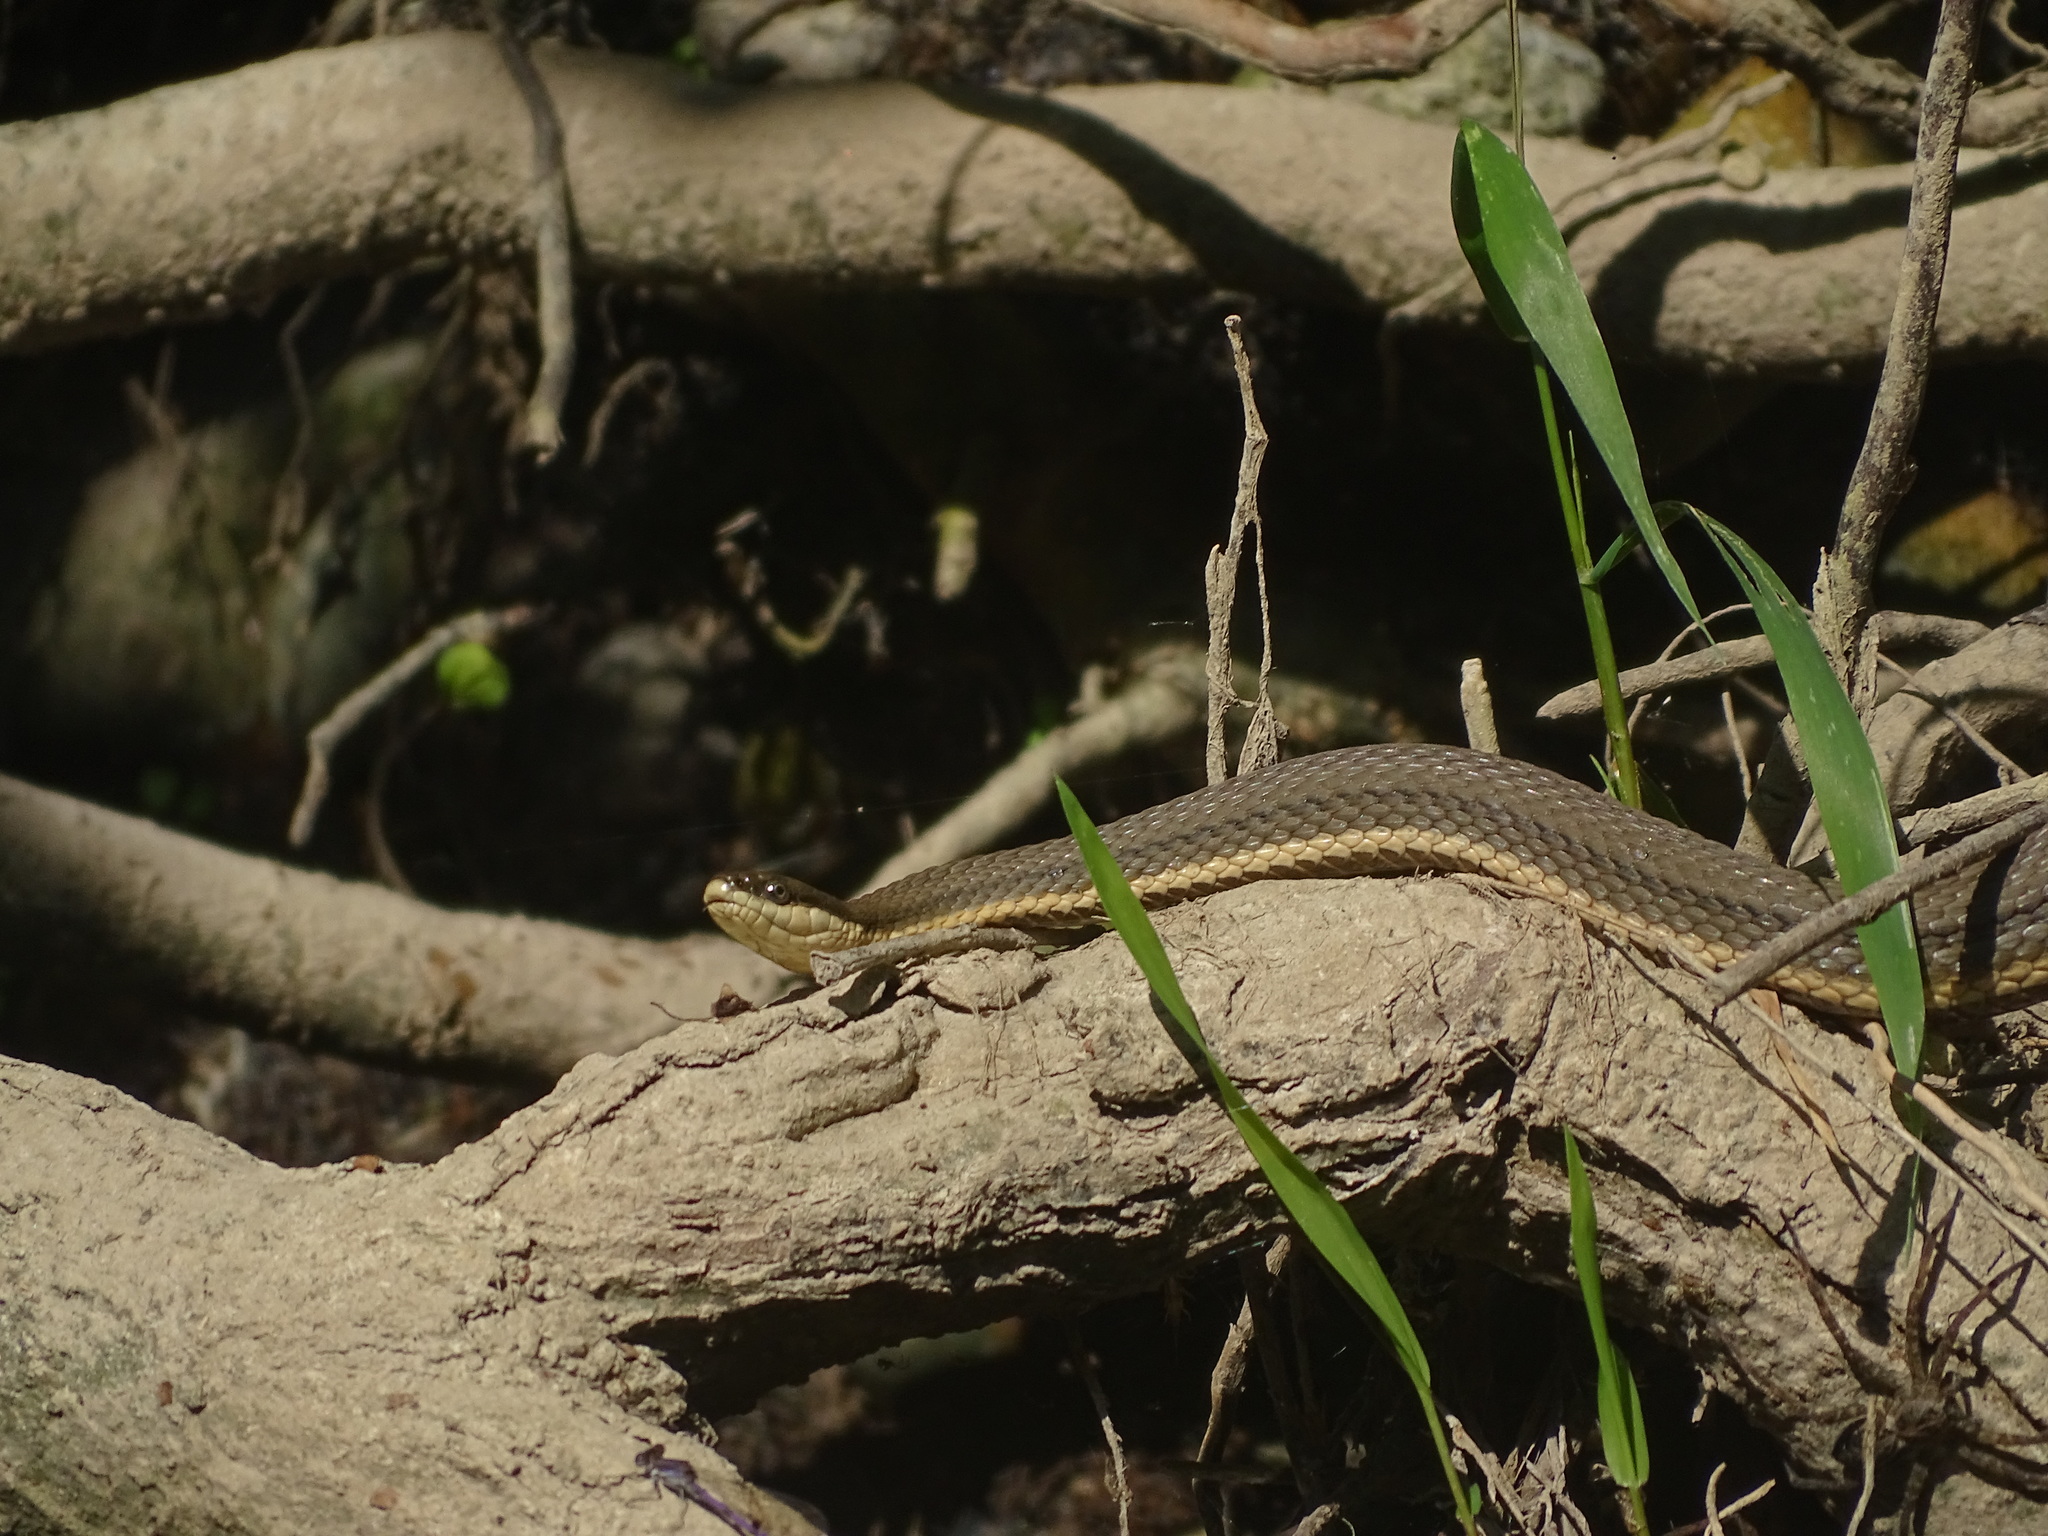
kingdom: Animalia
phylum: Chordata
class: Squamata
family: Colubridae
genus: Regina
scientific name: Regina septemvittata
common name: Queen snake
